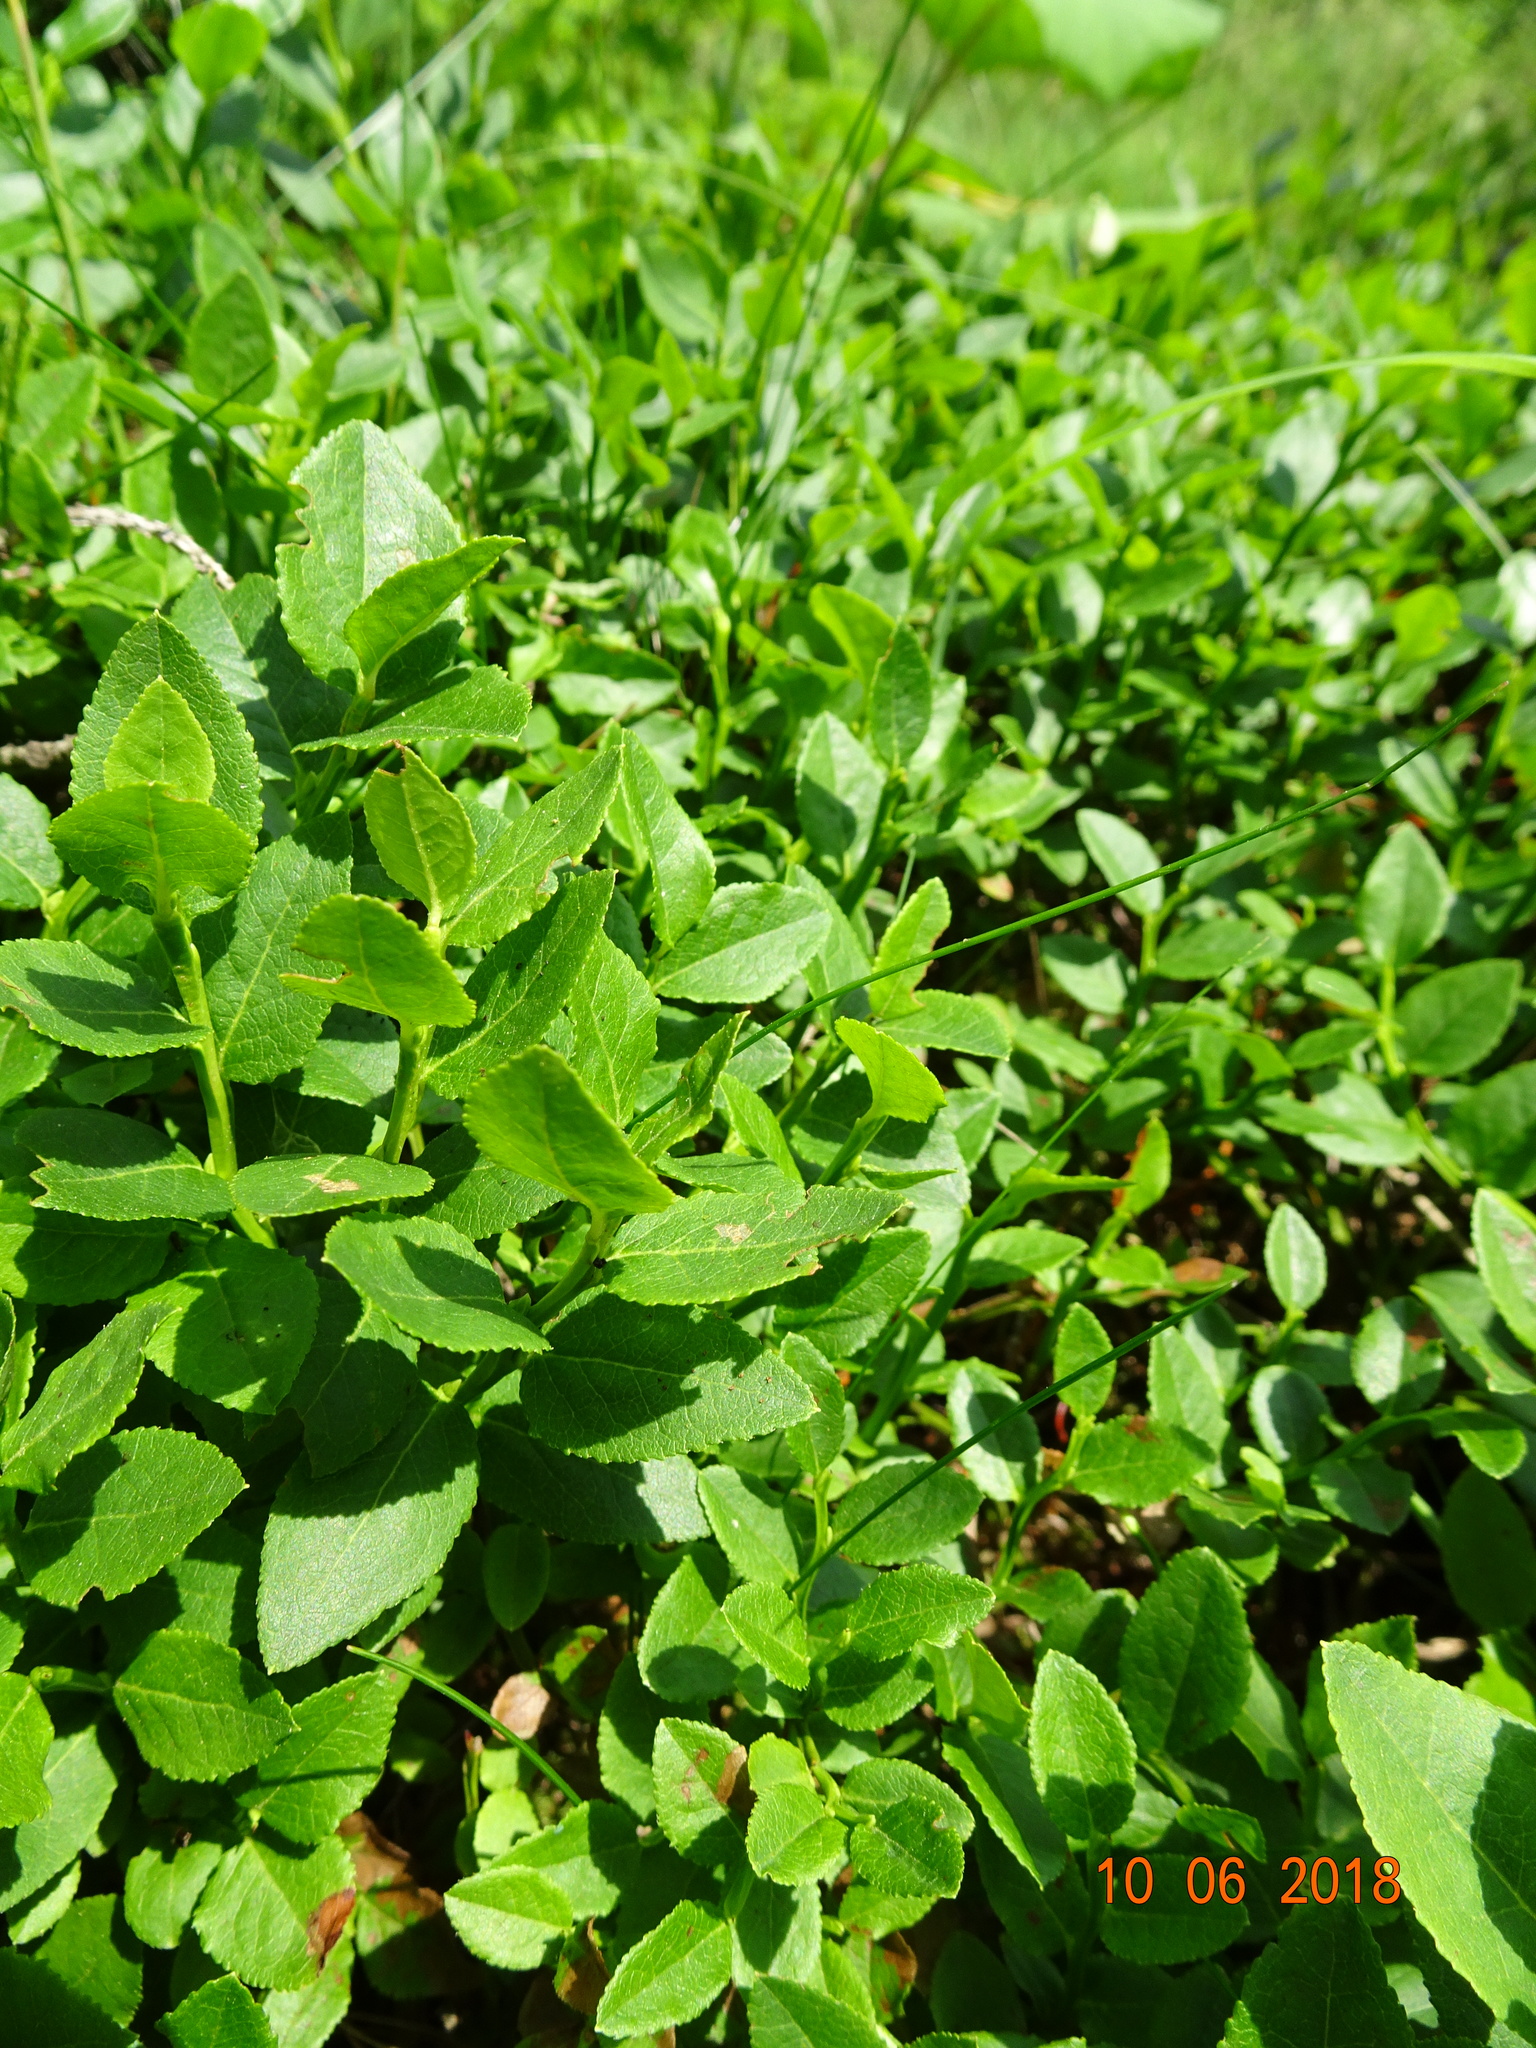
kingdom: Plantae
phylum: Tracheophyta
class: Magnoliopsida
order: Ericales
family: Ericaceae
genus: Vaccinium
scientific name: Vaccinium myrtillus
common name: Bilberry
